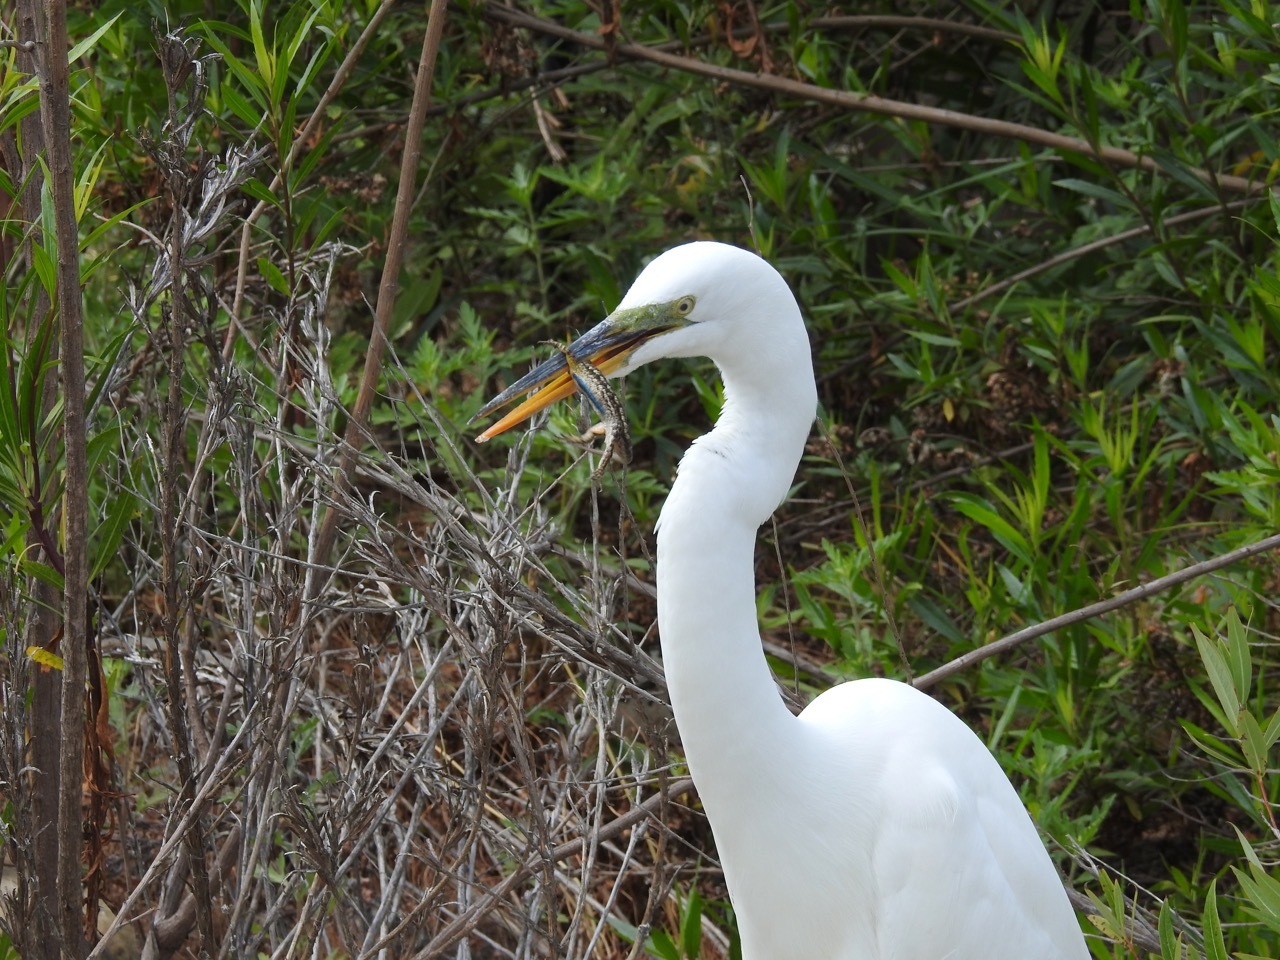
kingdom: Animalia
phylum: Chordata
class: Aves
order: Pelecaniformes
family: Ardeidae
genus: Ardea
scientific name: Ardea alba
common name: Great egret
